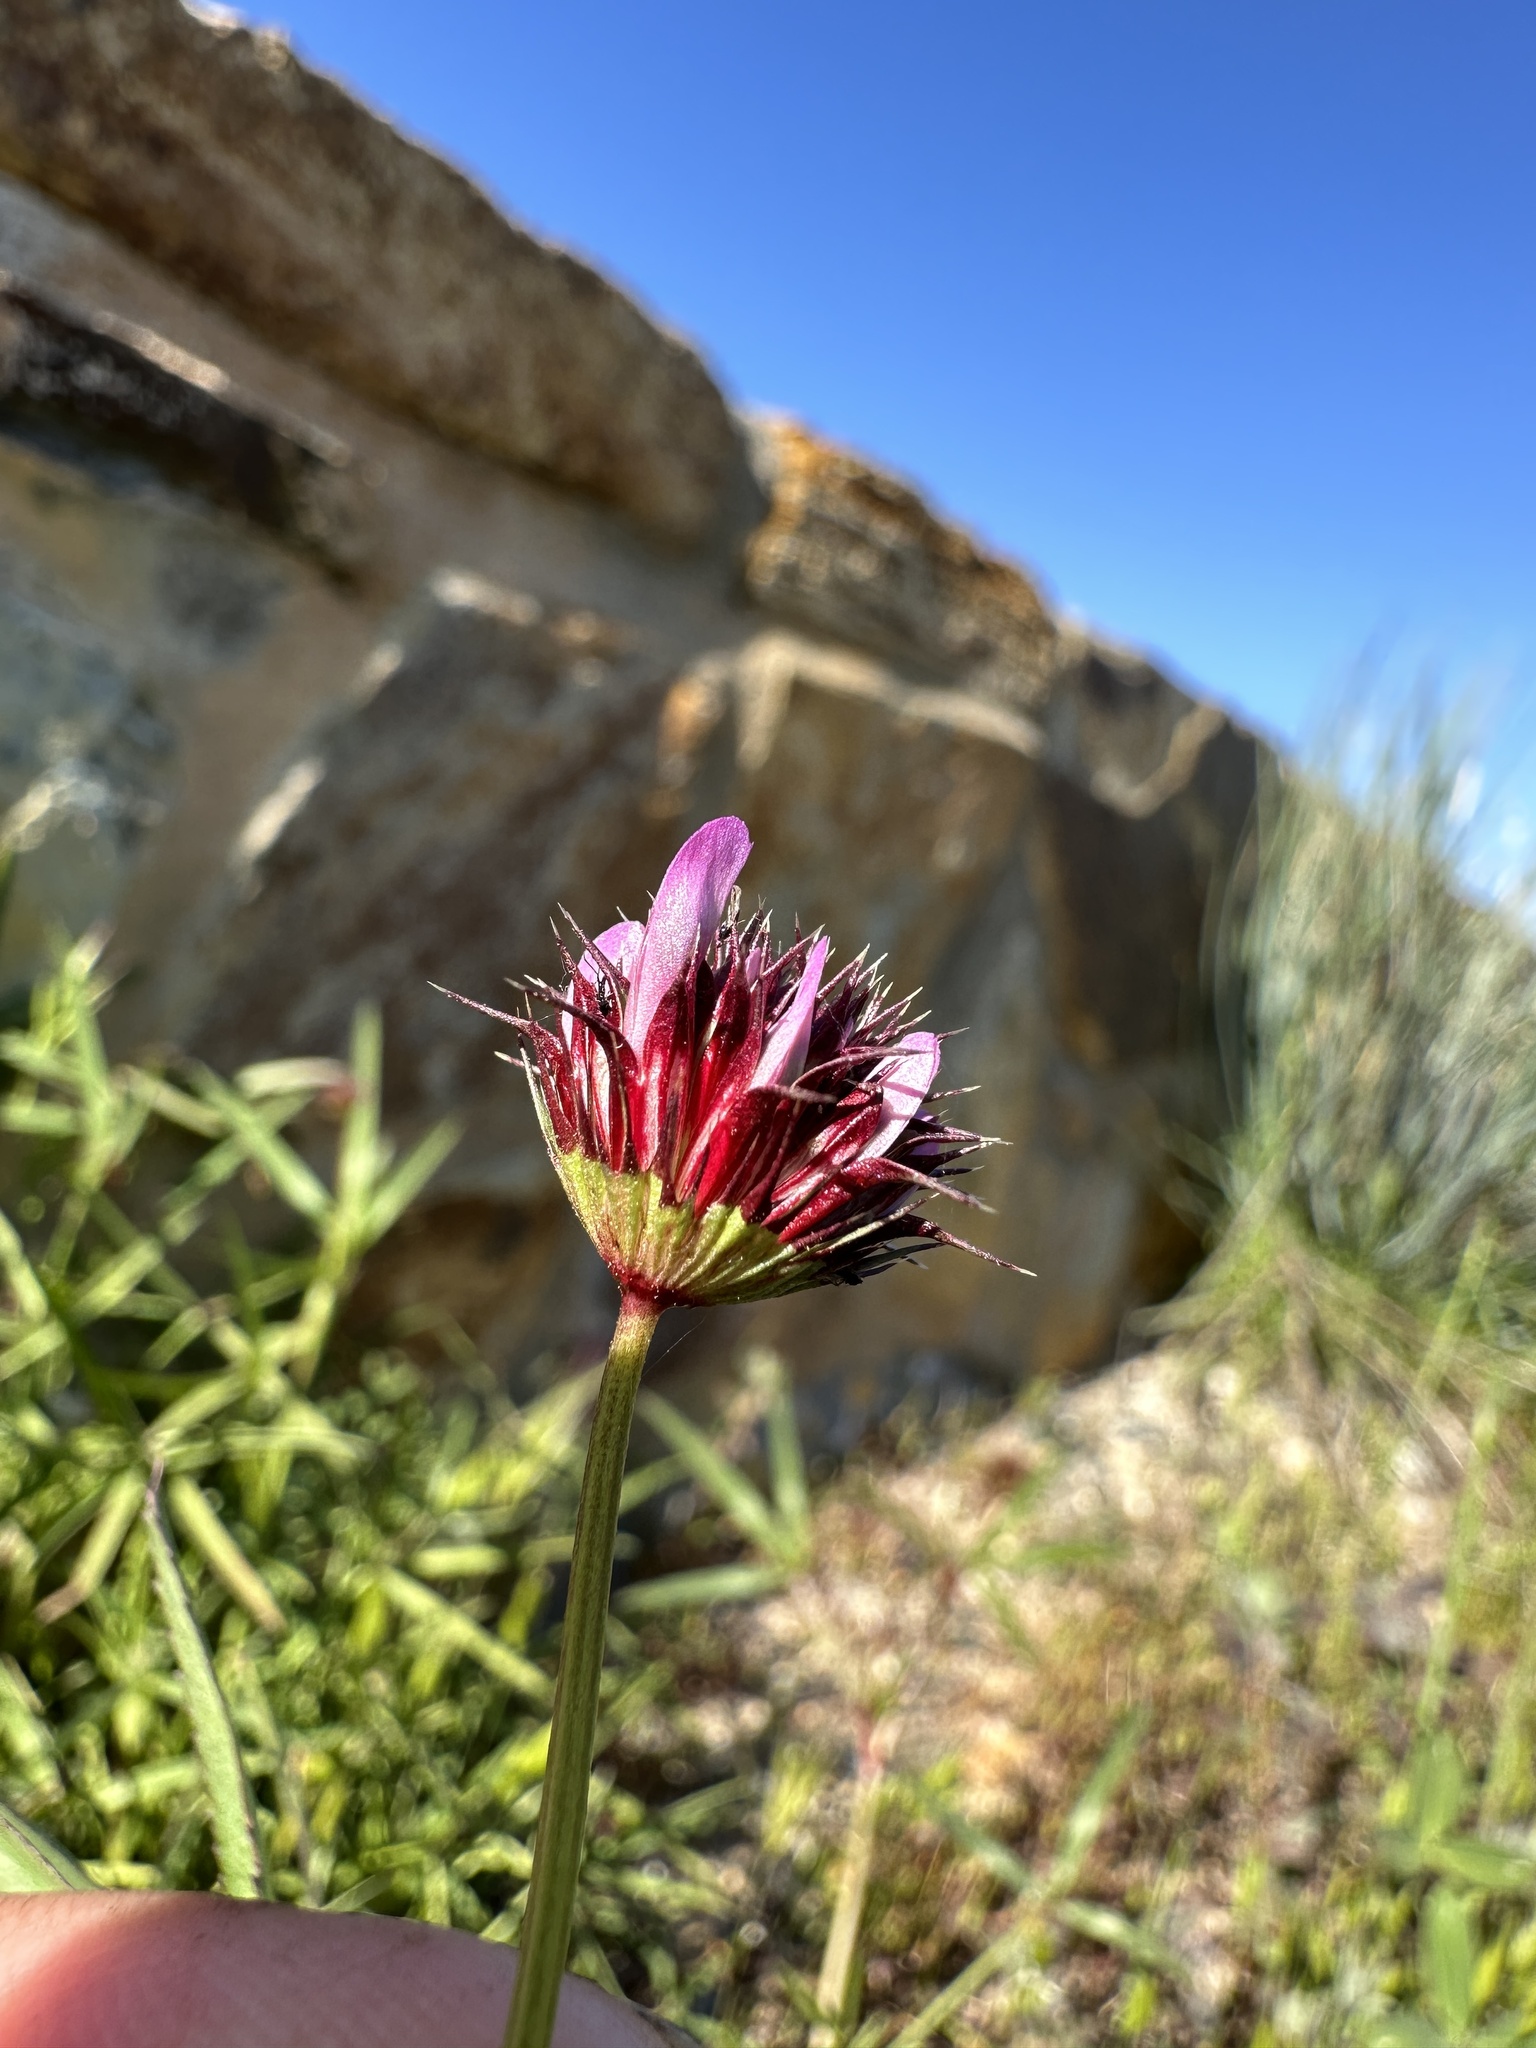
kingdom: Plantae
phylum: Tracheophyta
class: Magnoliopsida
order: Fabales
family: Fabaceae
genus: Trifolium
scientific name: Trifolium willdenovii
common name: Tomcat clover
